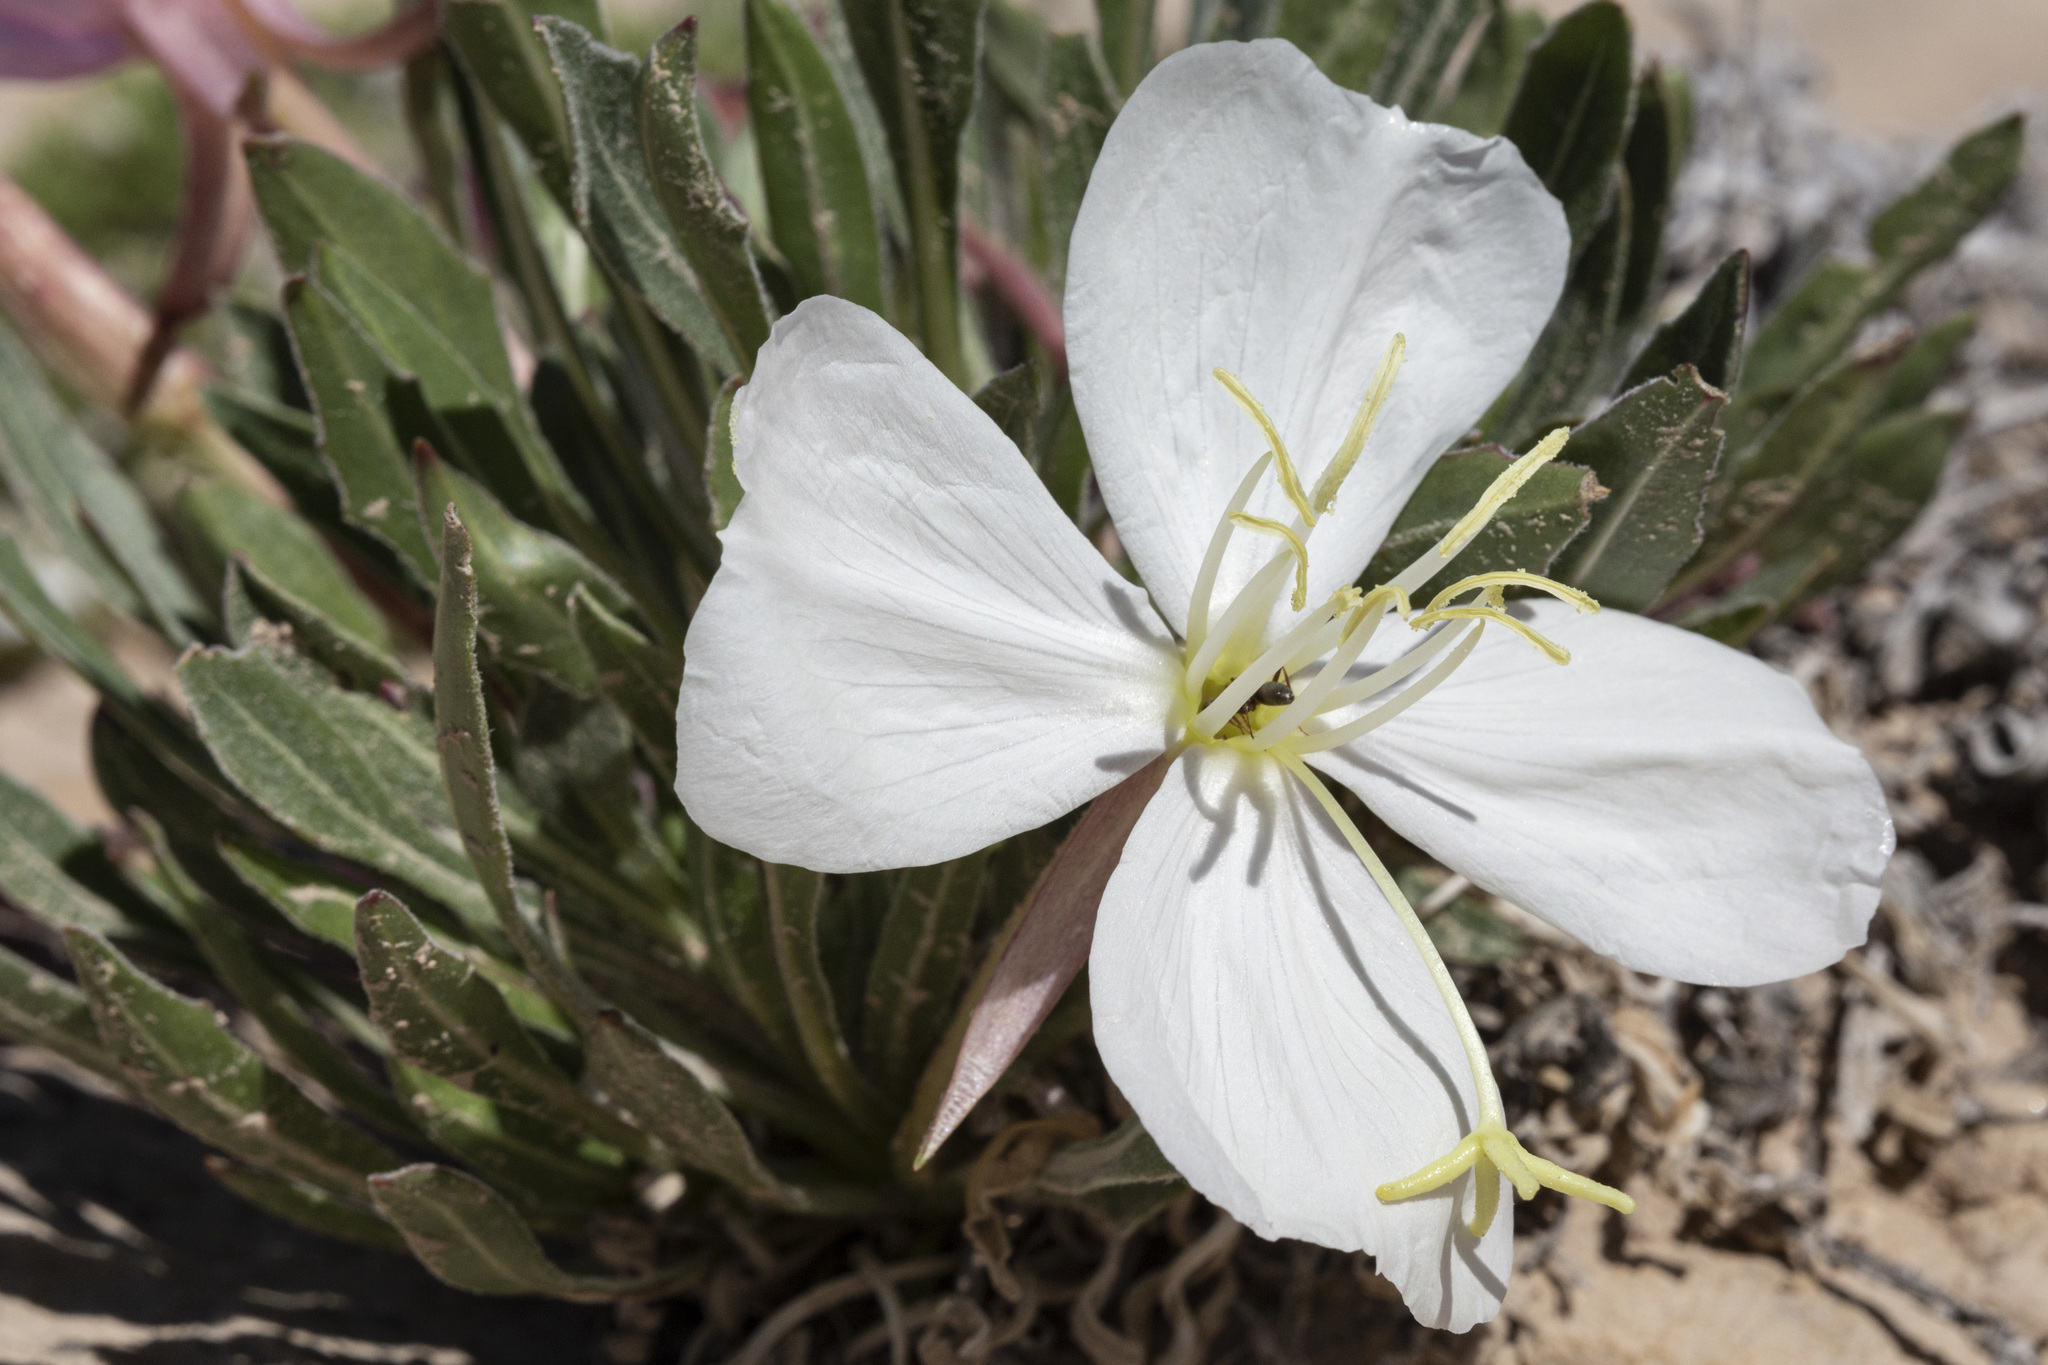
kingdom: Plantae
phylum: Tracheophyta
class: Magnoliopsida
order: Myrtales
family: Onagraceae
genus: Oenothera
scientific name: Oenothera cespitosa
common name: Tufted evening-primrose
